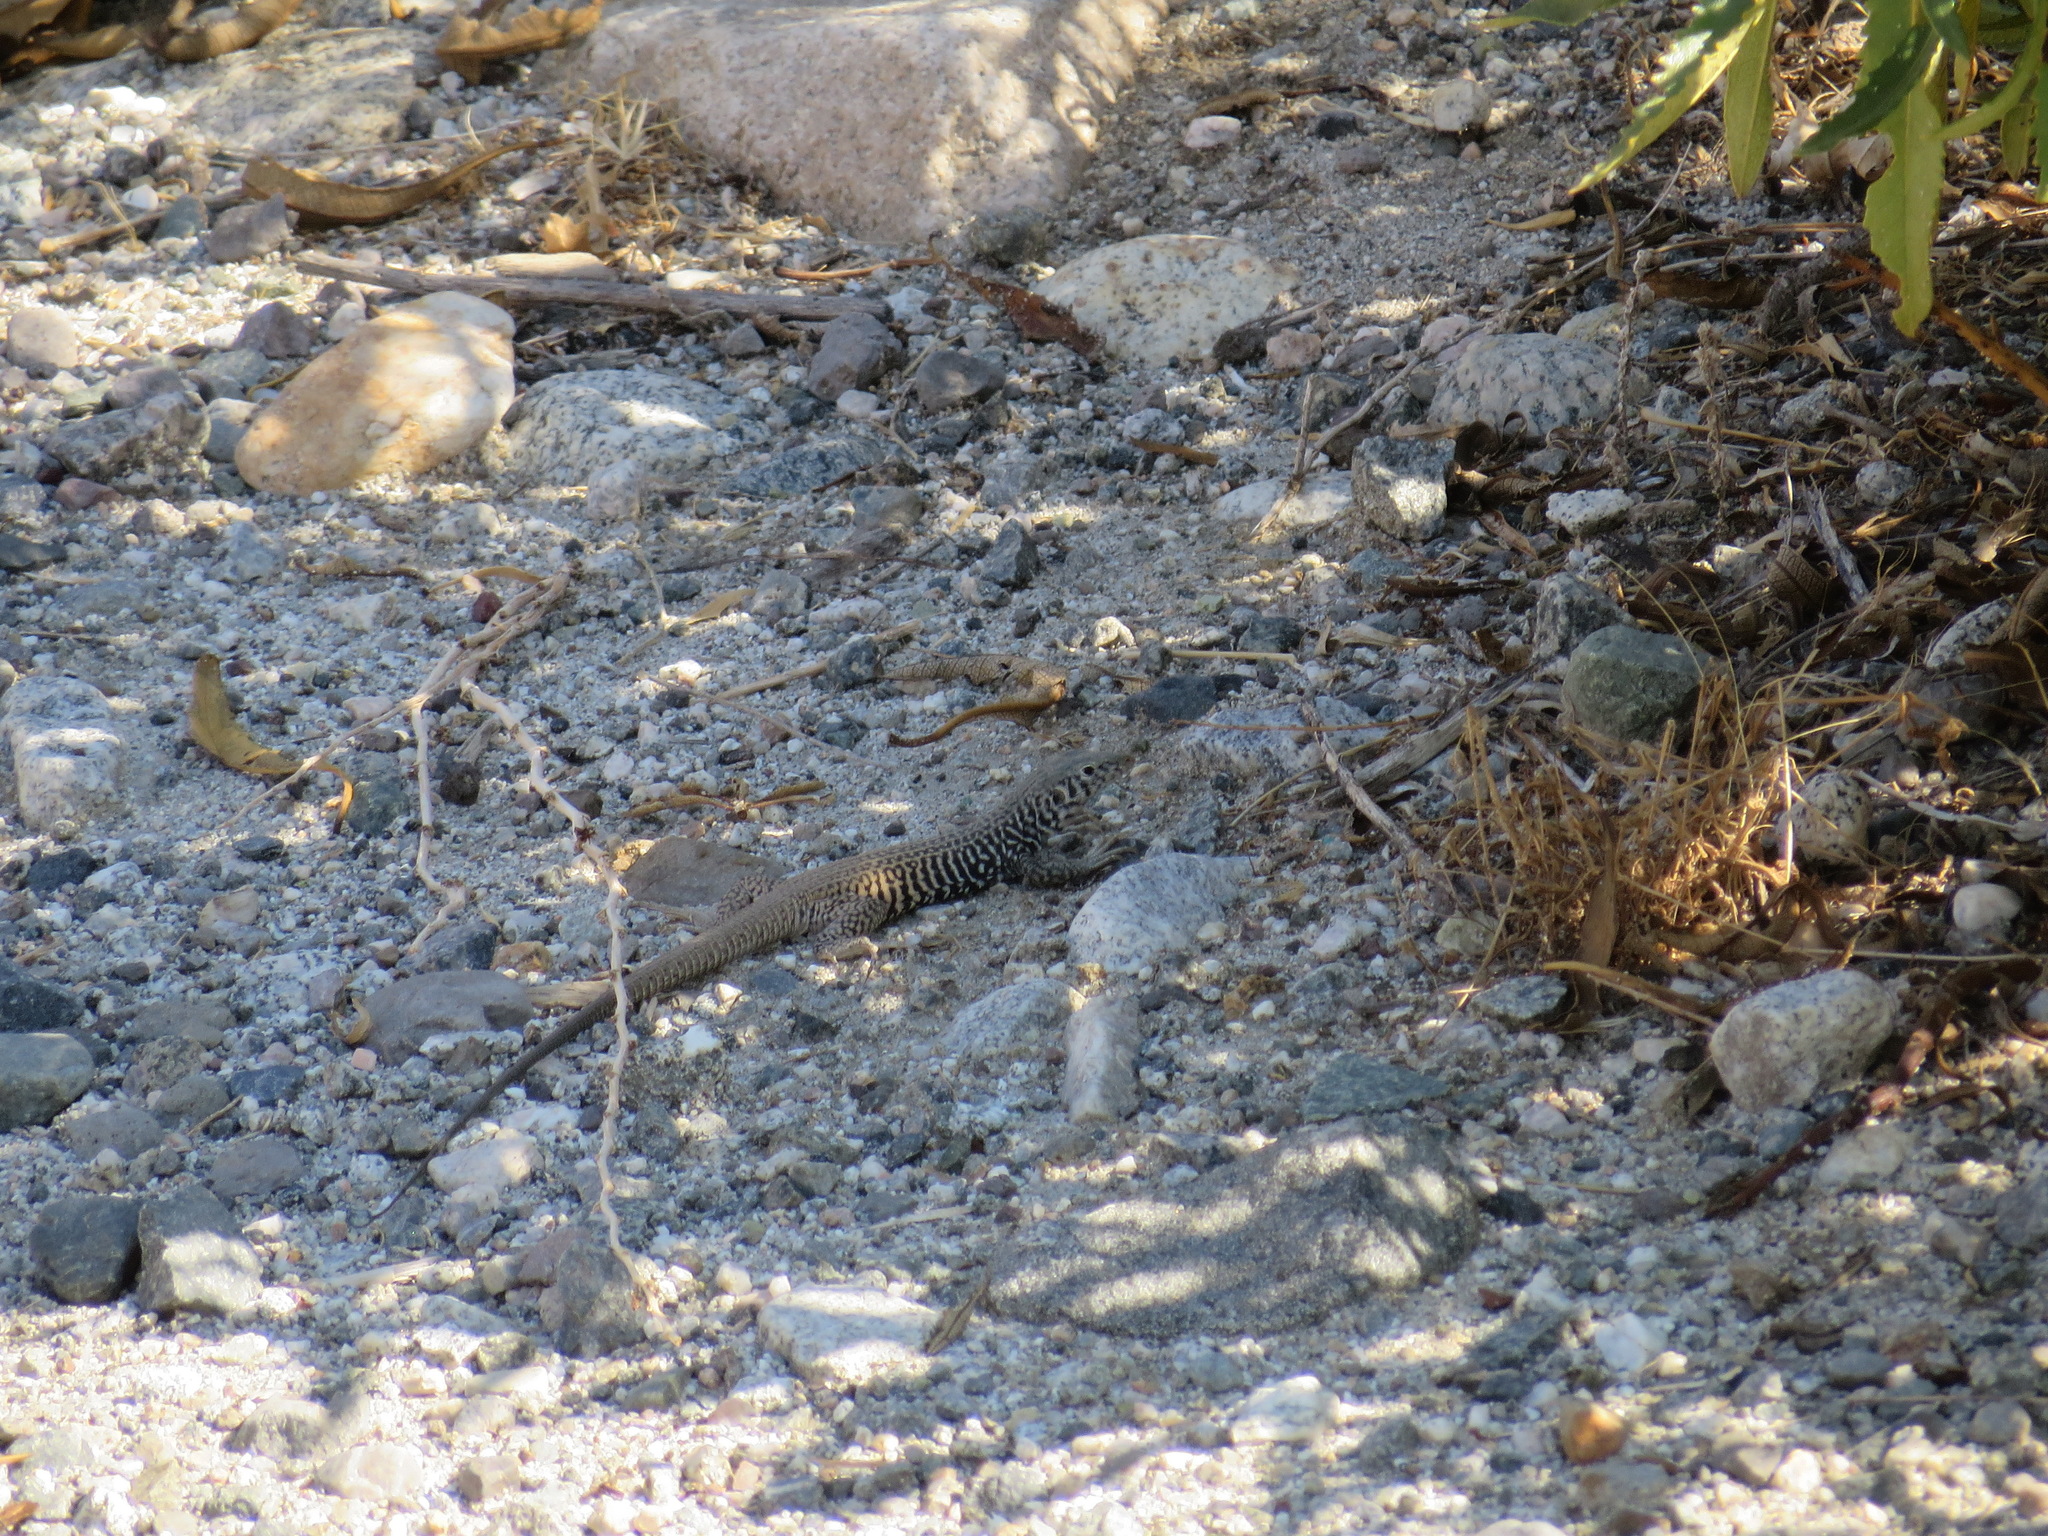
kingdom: Animalia
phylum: Chordata
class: Squamata
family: Teiidae
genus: Aspidoscelis
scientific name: Aspidoscelis tigris
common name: Tiger whiptail
